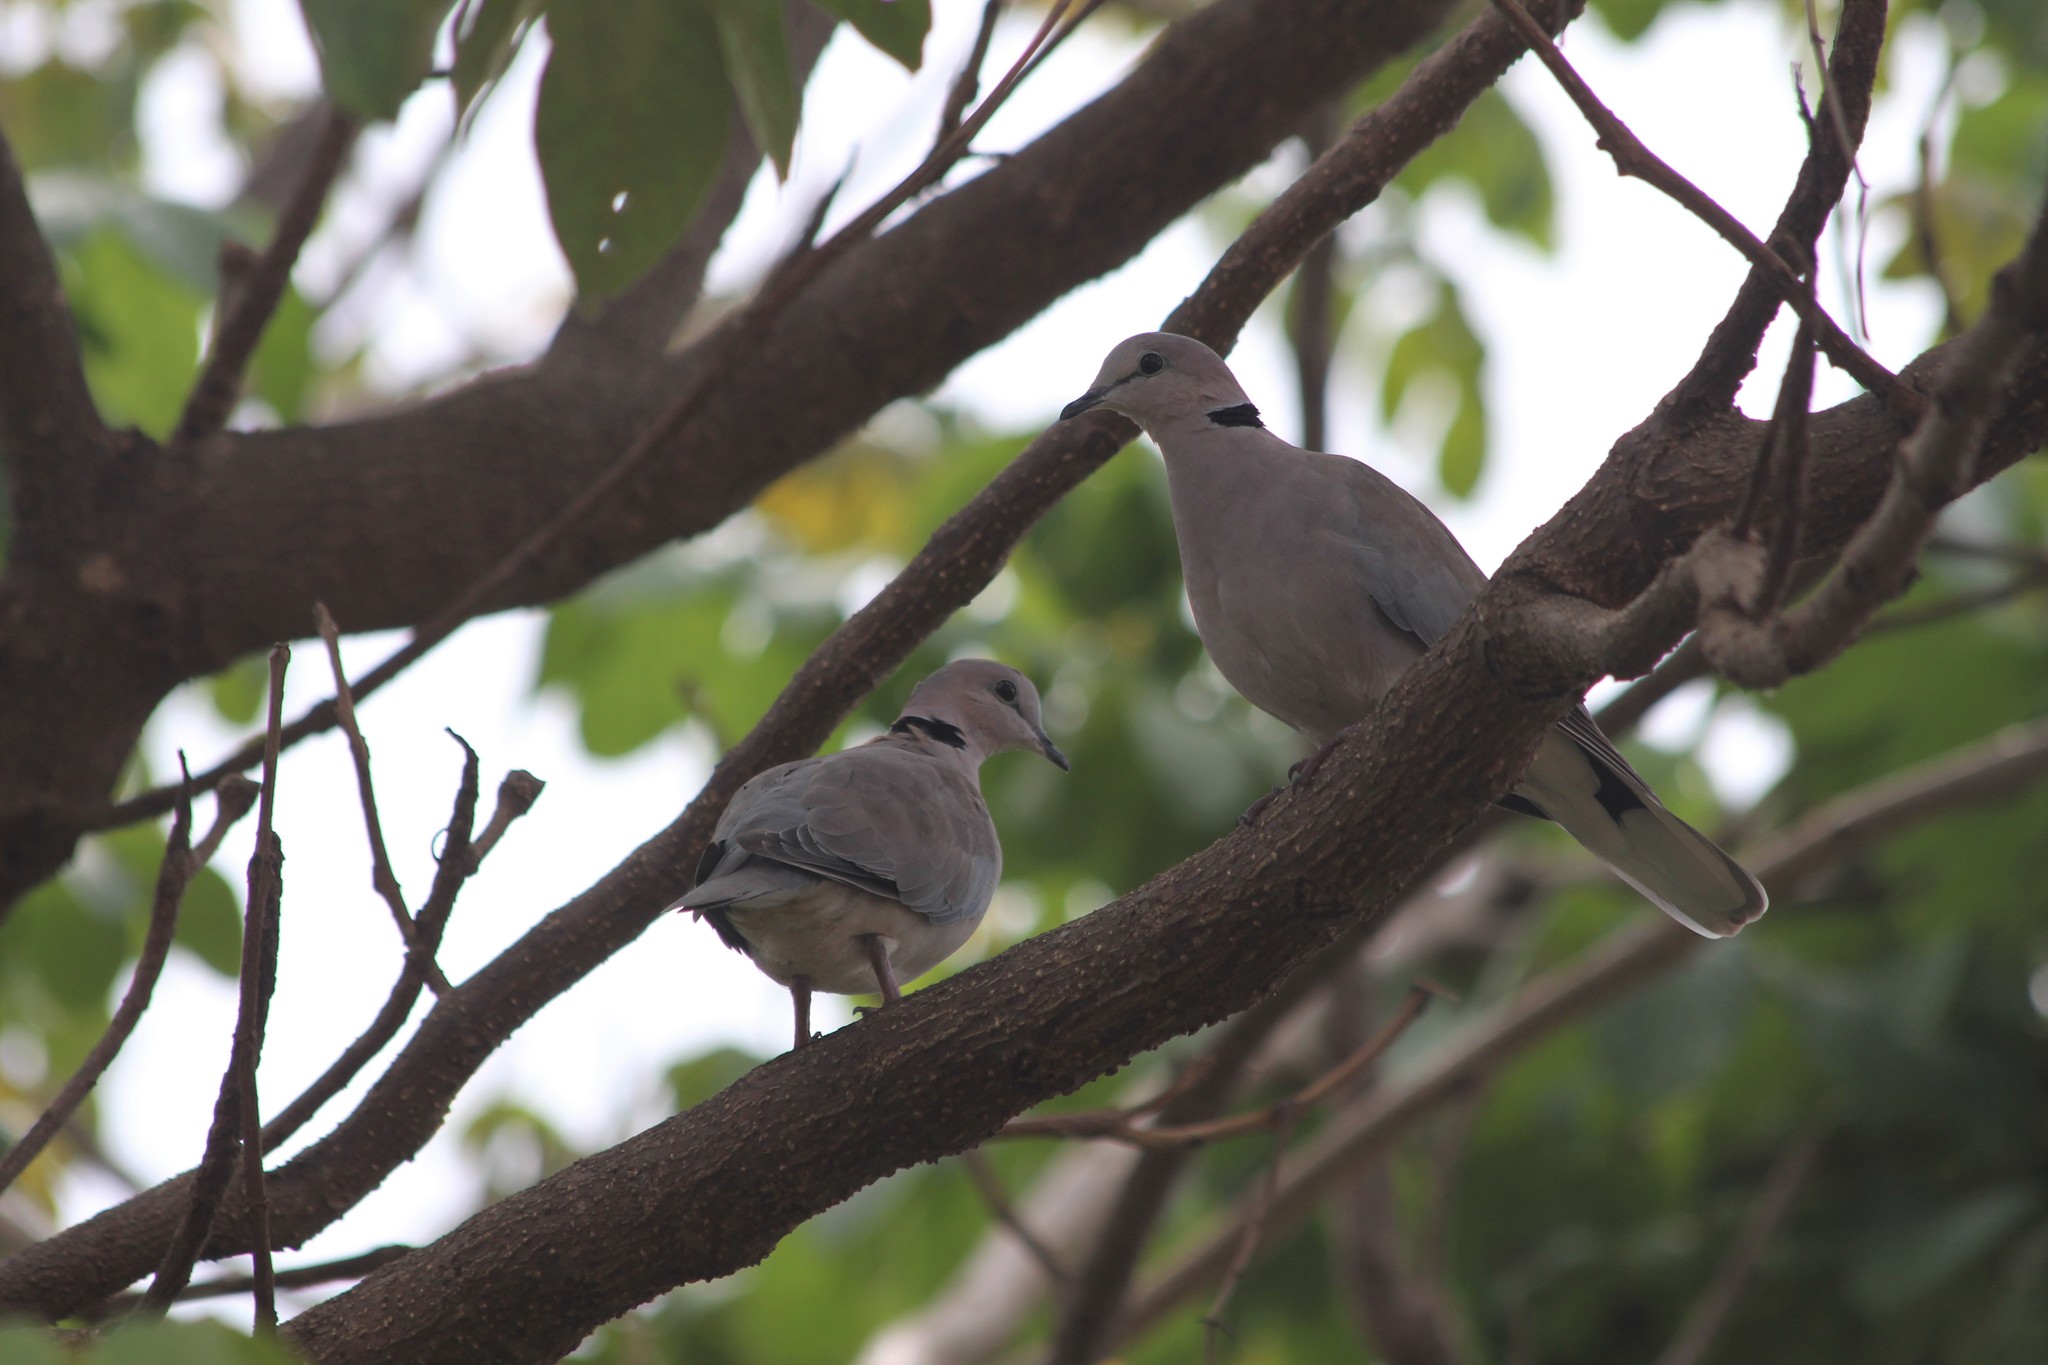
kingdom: Animalia
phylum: Chordata
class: Aves
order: Columbiformes
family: Columbidae
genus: Streptopelia
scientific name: Streptopelia capicola
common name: Ring-necked dove
